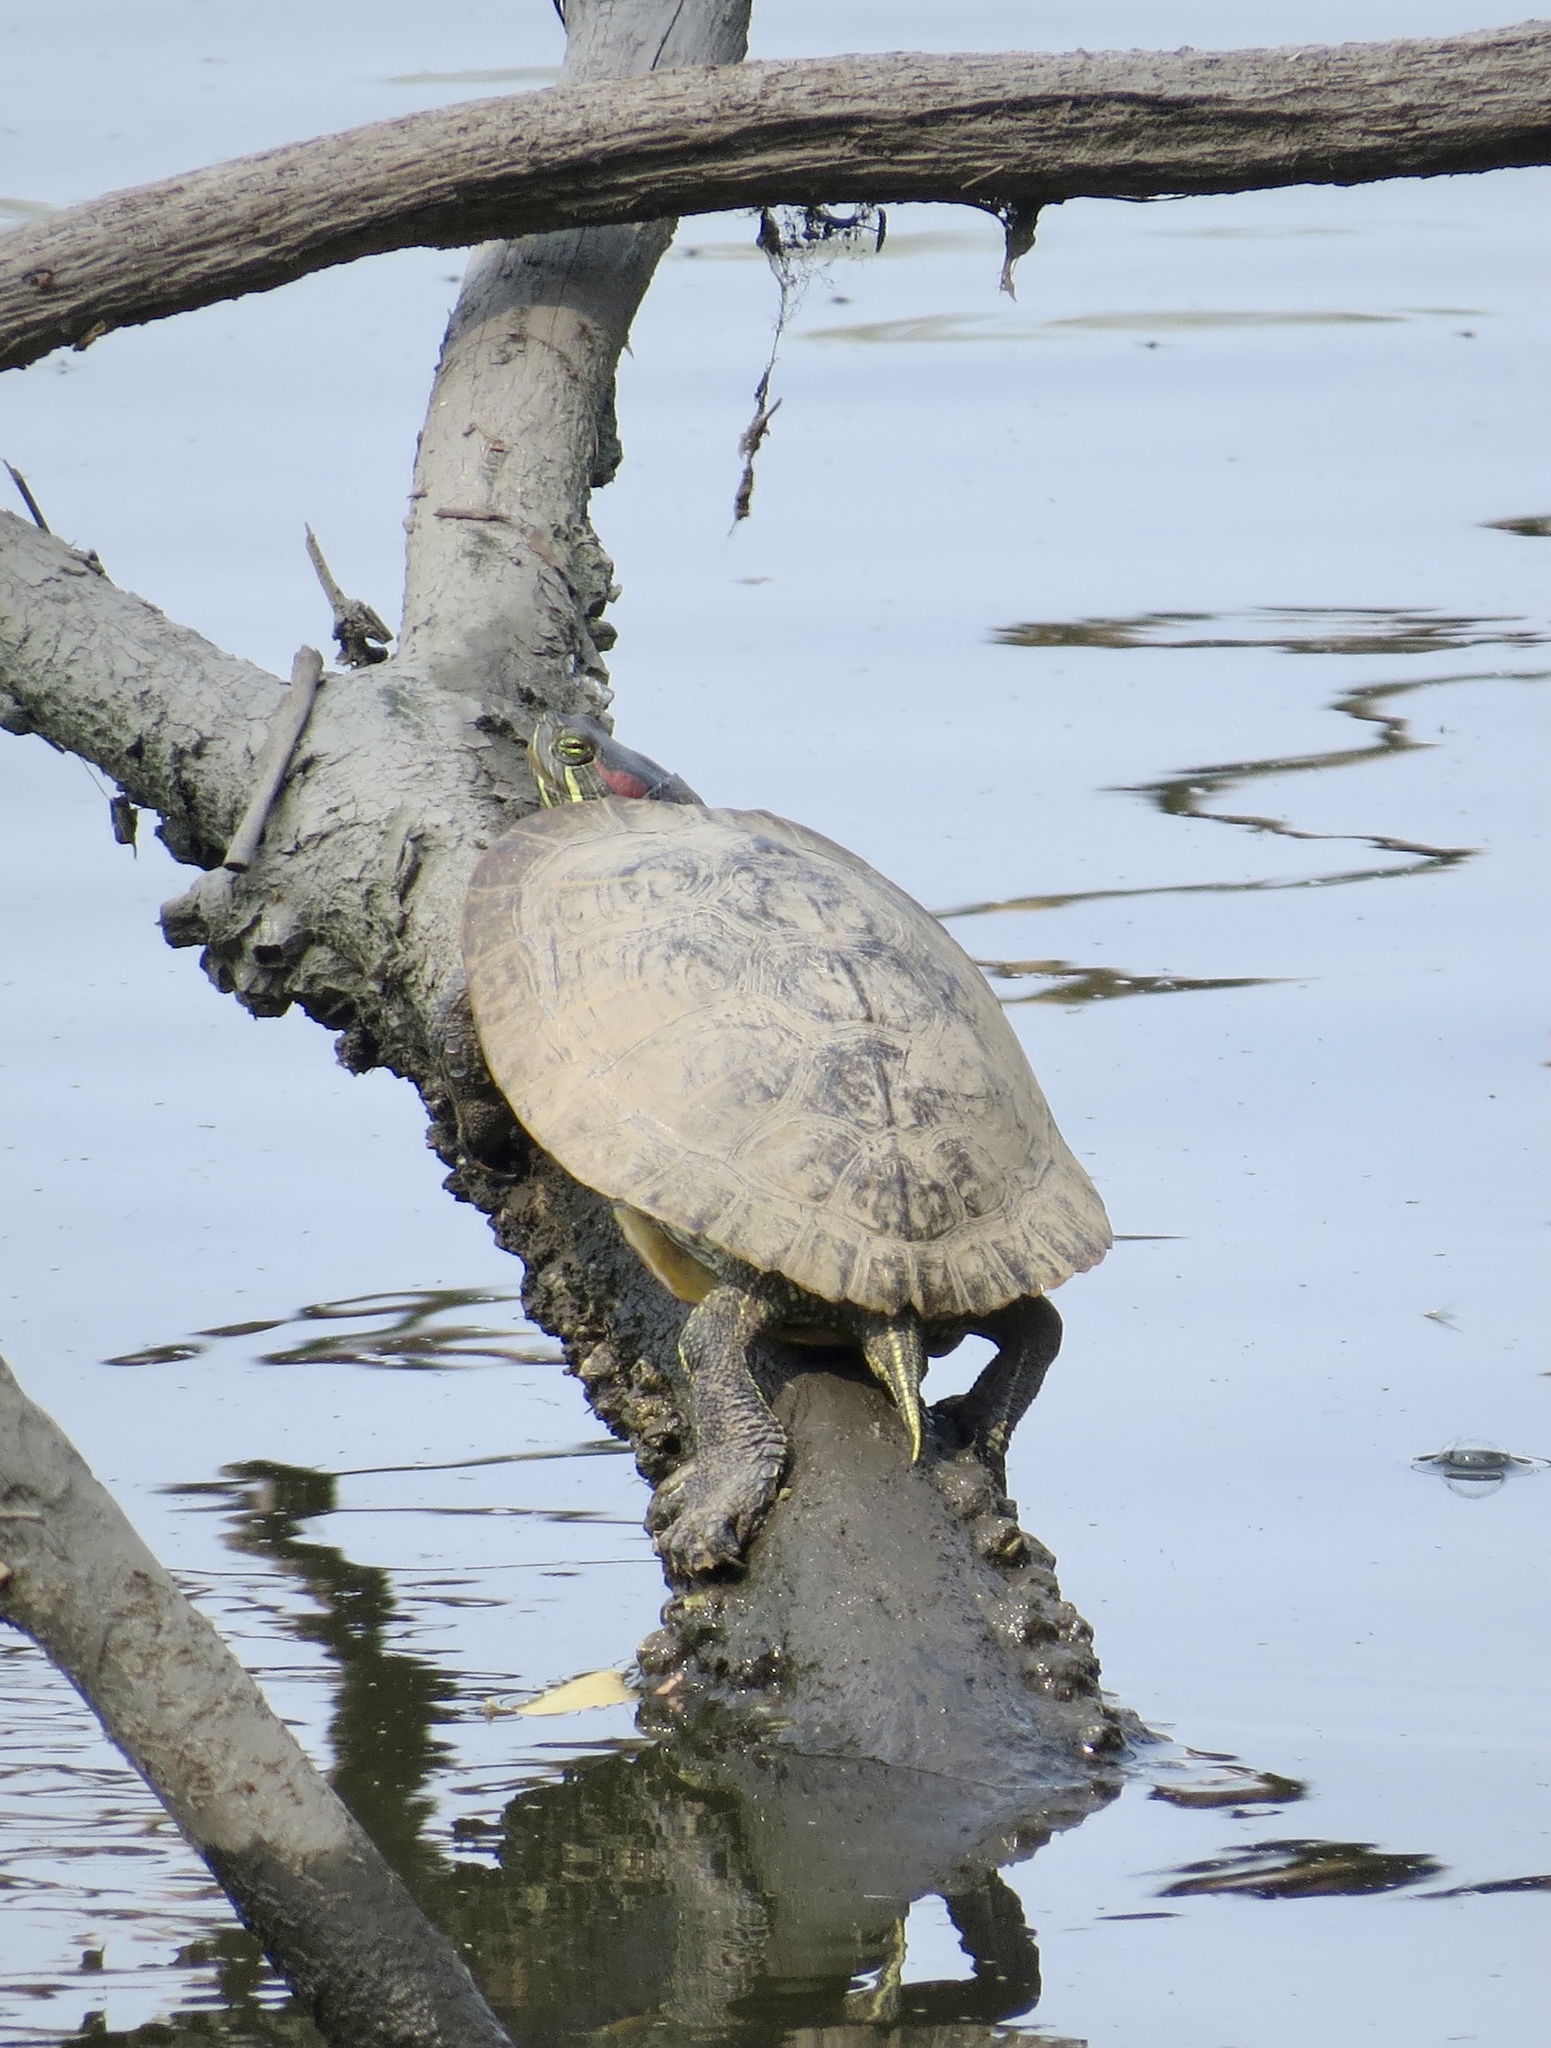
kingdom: Animalia
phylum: Chordata
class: Testudines
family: Emydidae
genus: Trachemys
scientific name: Trachemys scripta
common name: Slider
